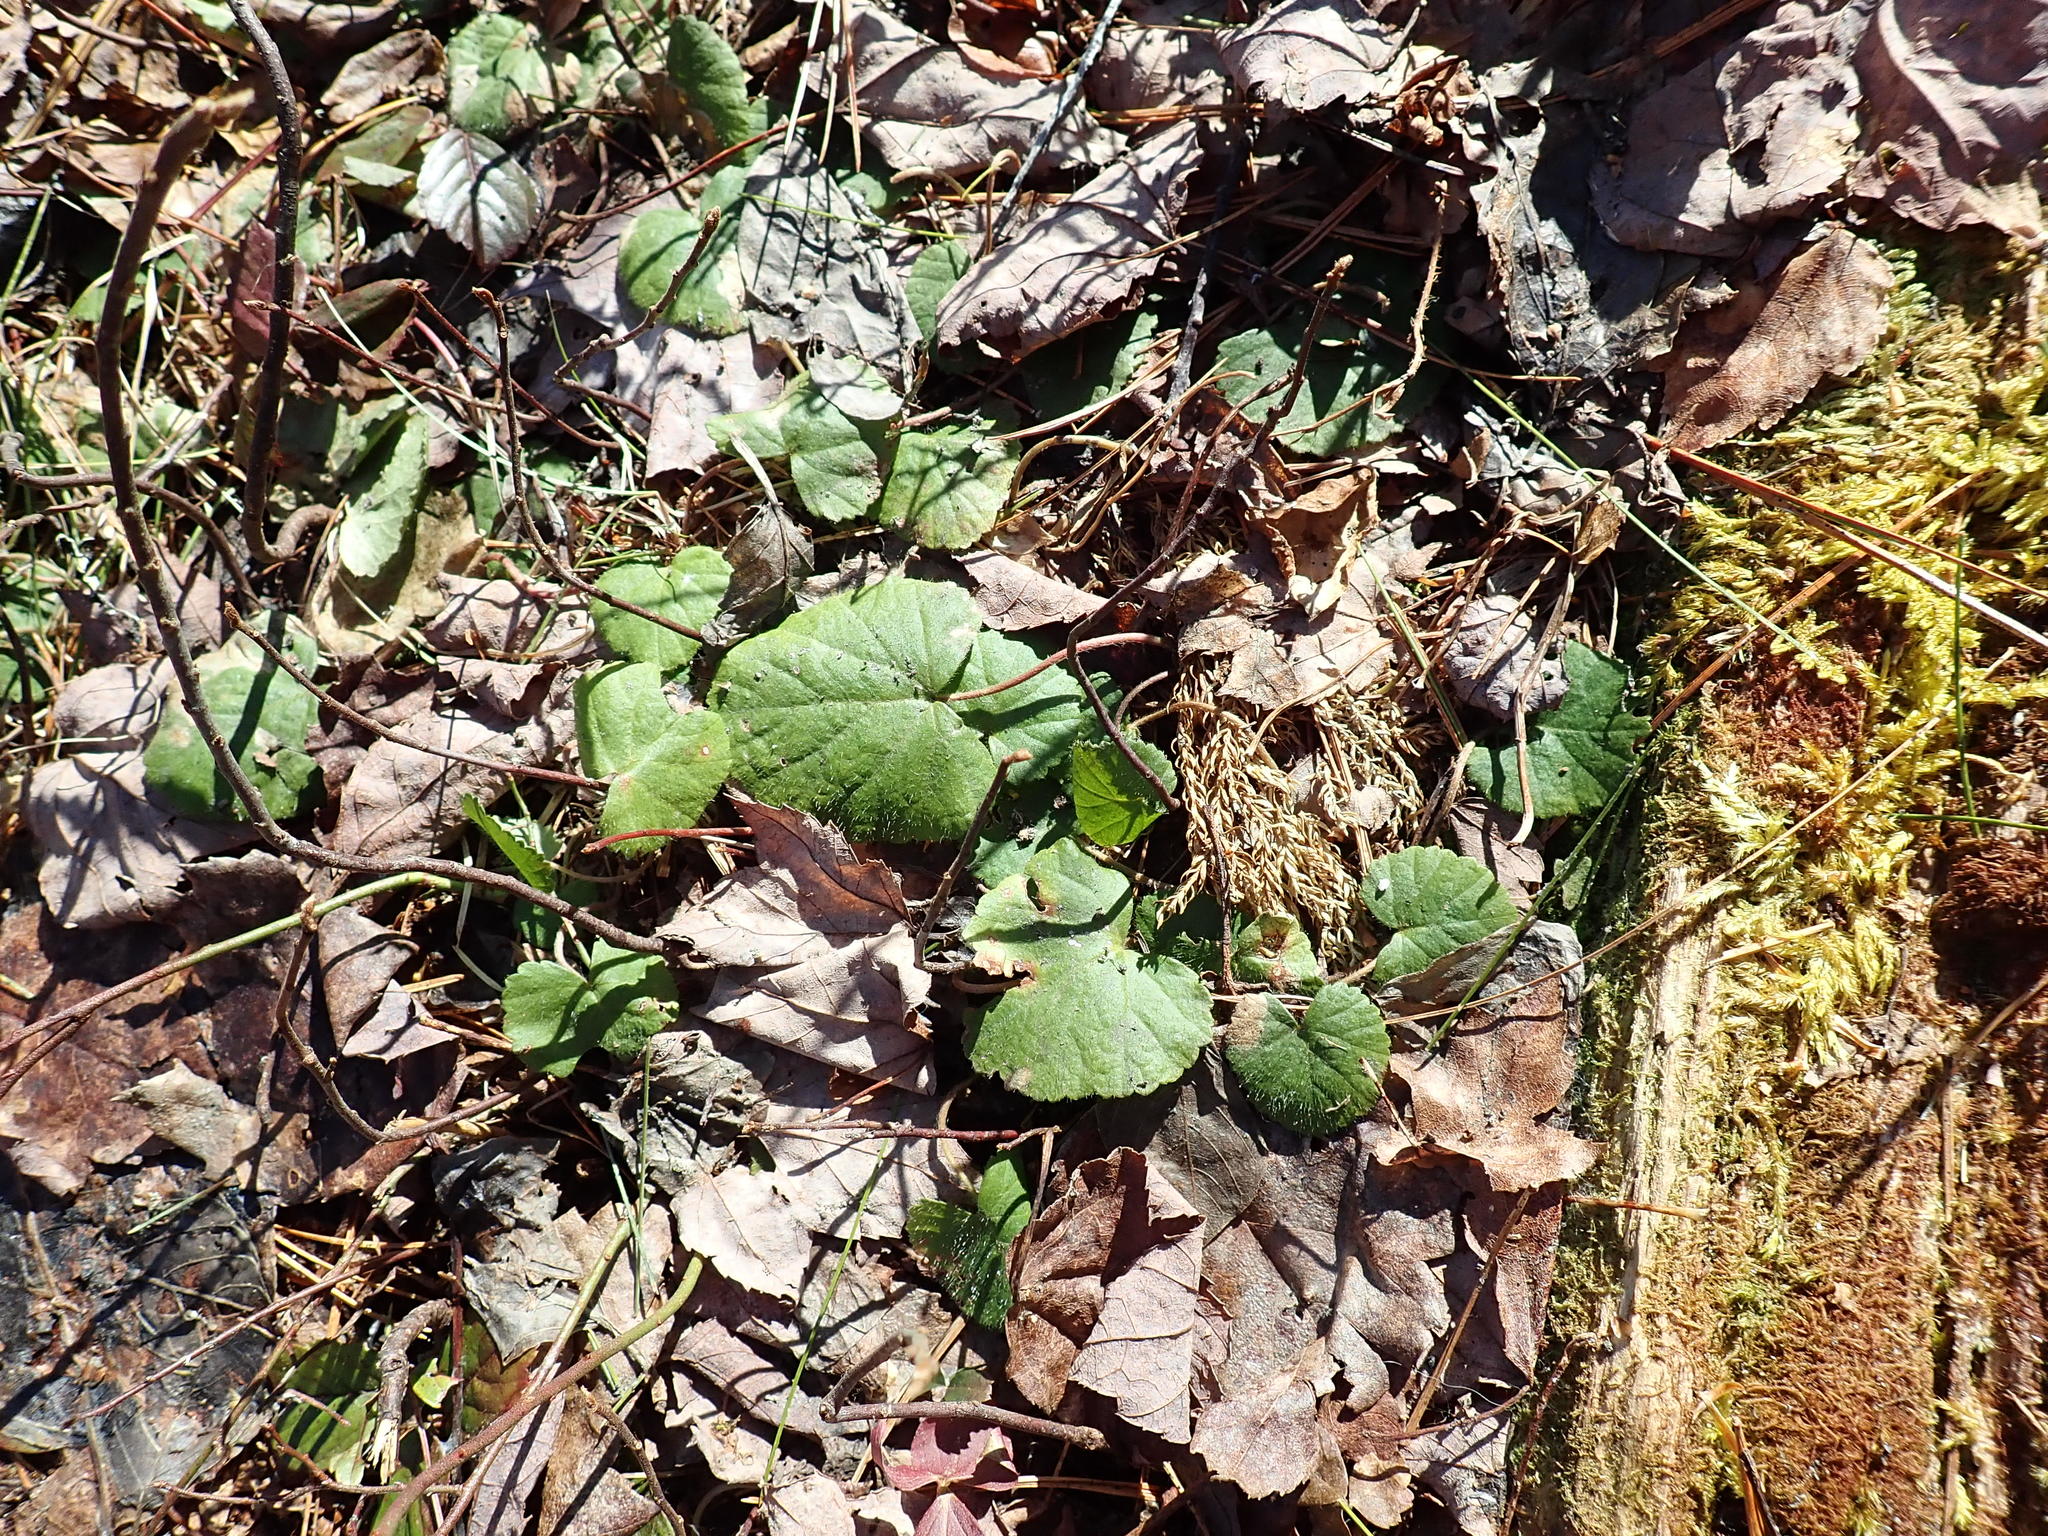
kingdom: Plantae
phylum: Tracheophyta
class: Magnoliopsida
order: Rosales
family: Rosaceae
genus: Dalibarda
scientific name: Dalibarda repens
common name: Dewdrop
